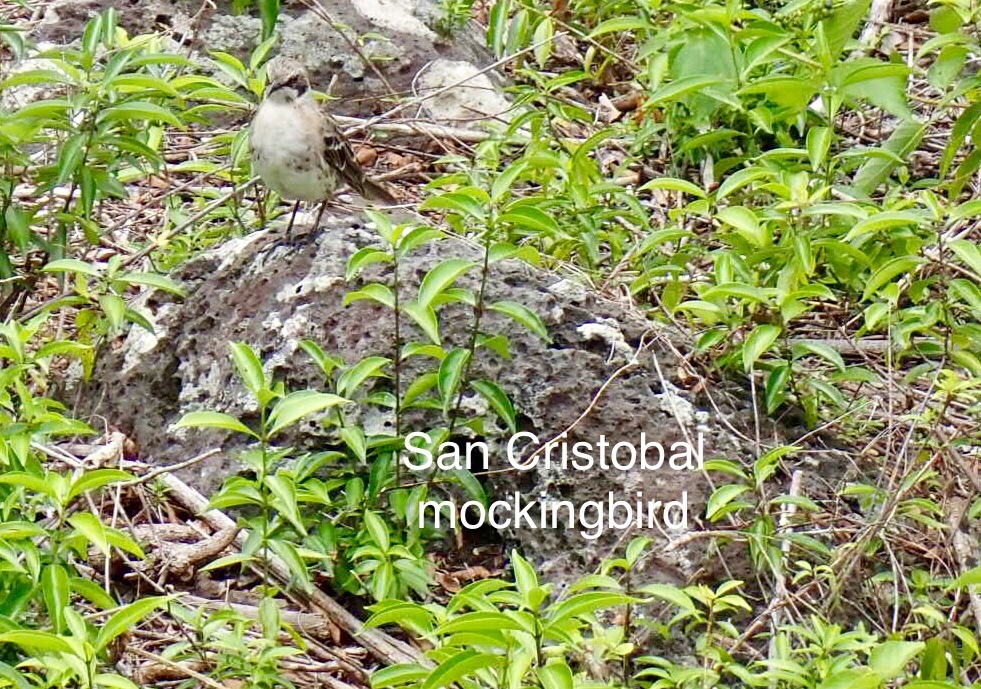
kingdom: Animalia
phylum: Chordata
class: Aves
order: Passeriformes
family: Mimidae
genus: Mimus
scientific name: Mimus melanotis
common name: San cristobal mockingbird
